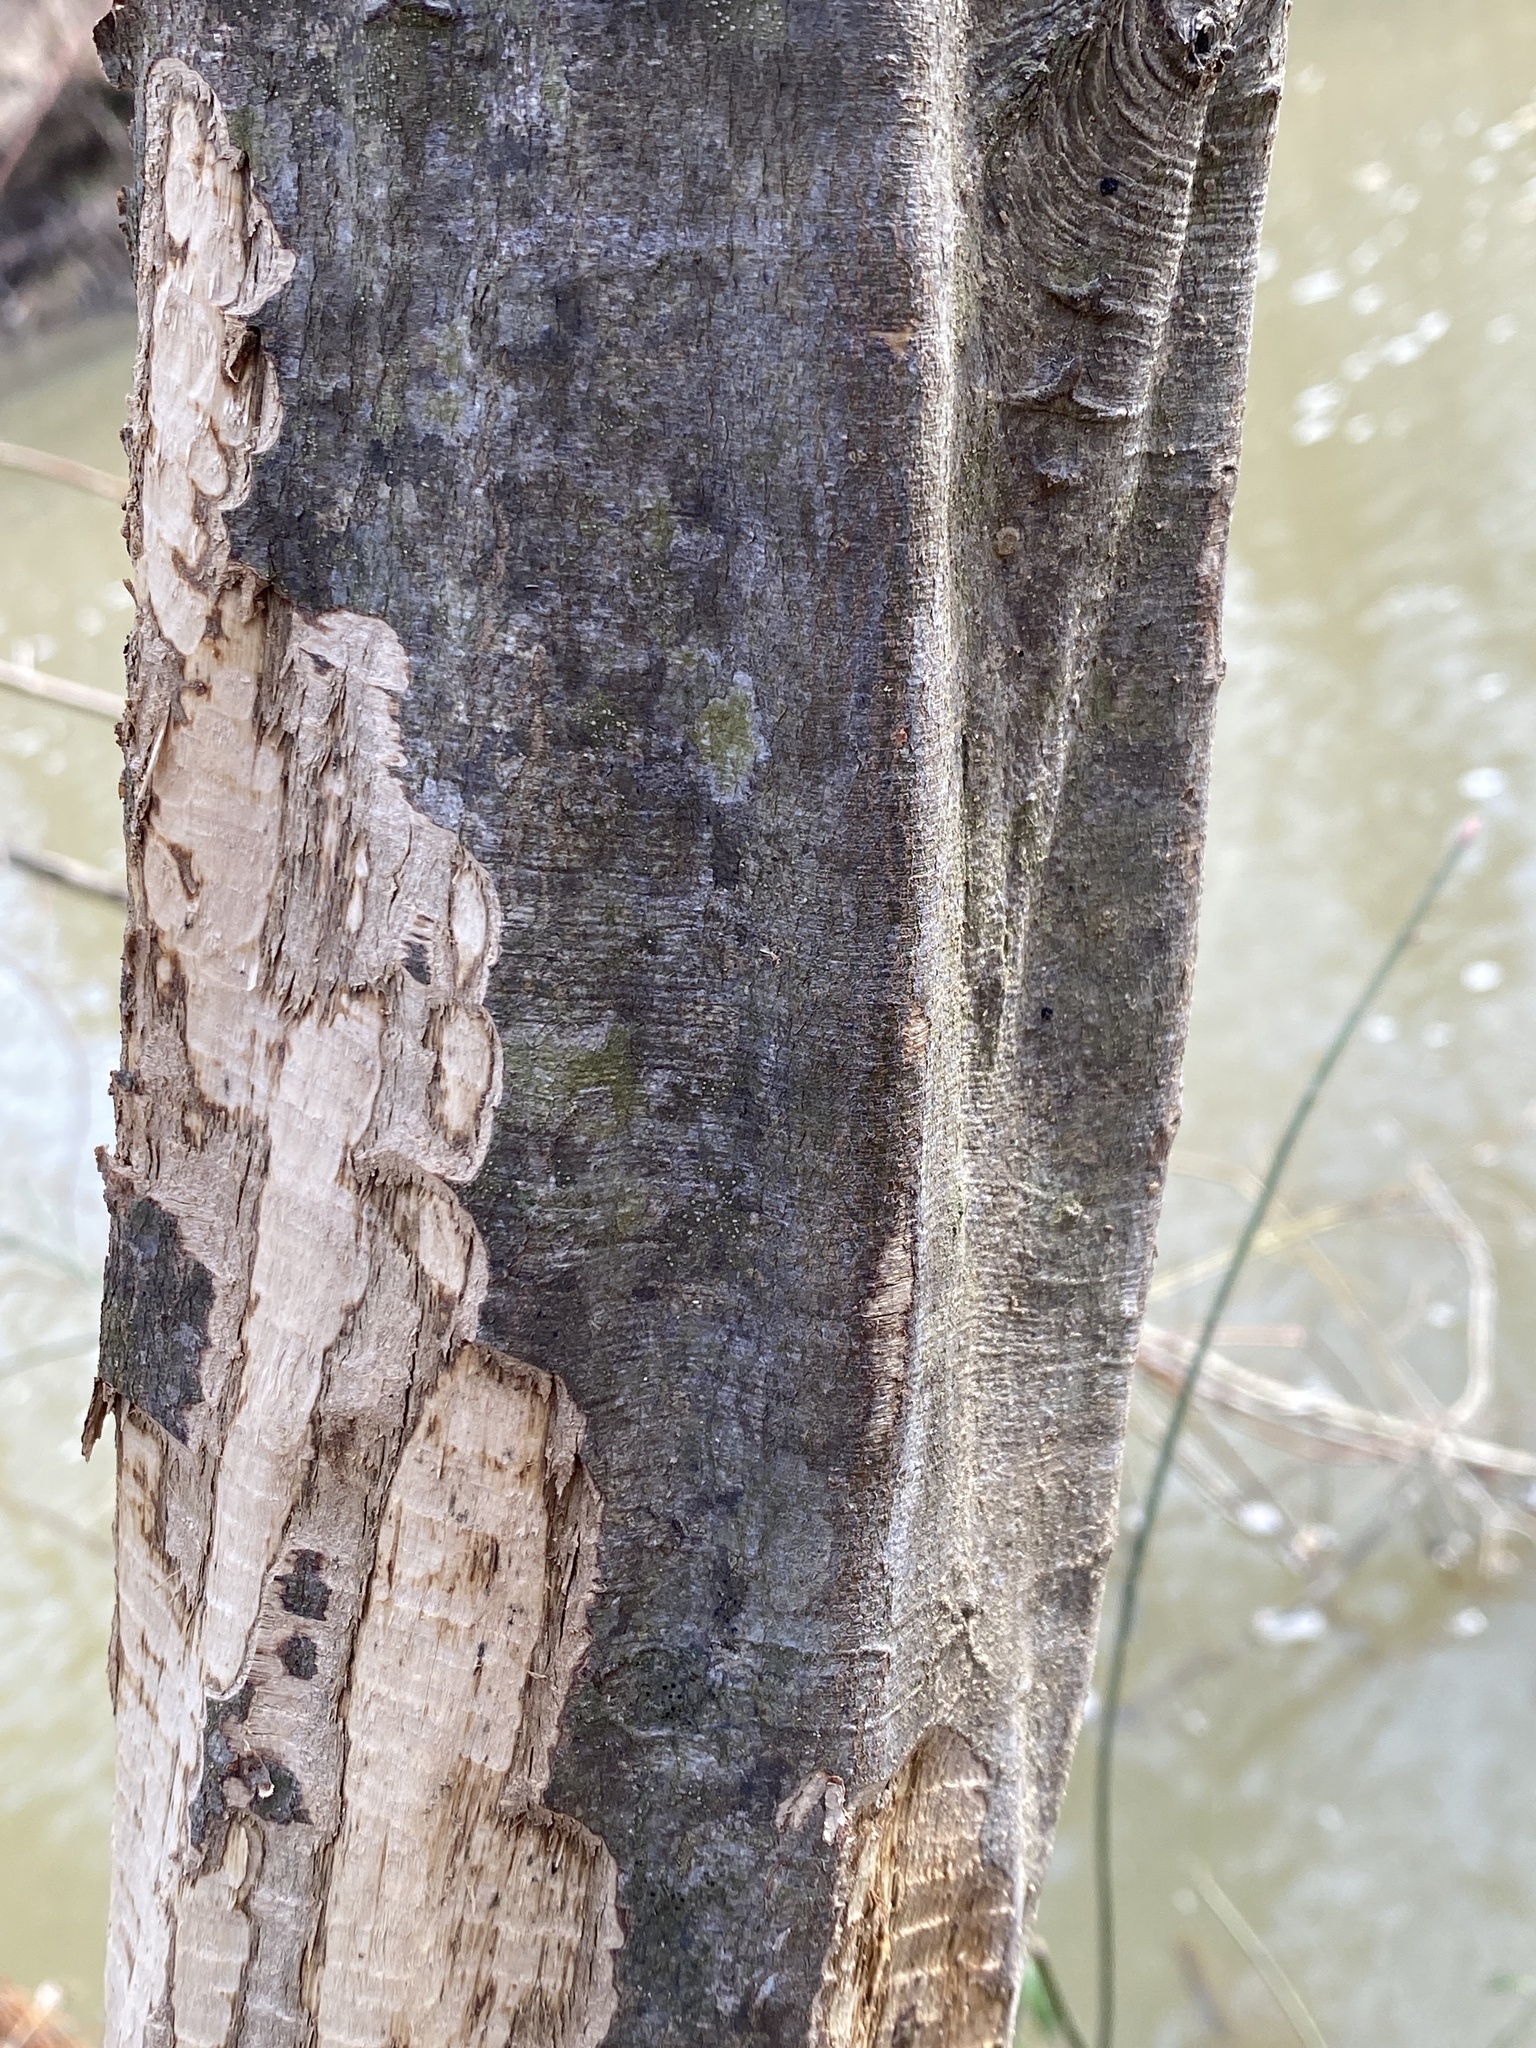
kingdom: Plantae
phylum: Tracheophyta
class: Magnoliopsida
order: Fagales
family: Betulaceae
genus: Carpinus
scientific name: Carpinus caroliniana
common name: American hornbeam
